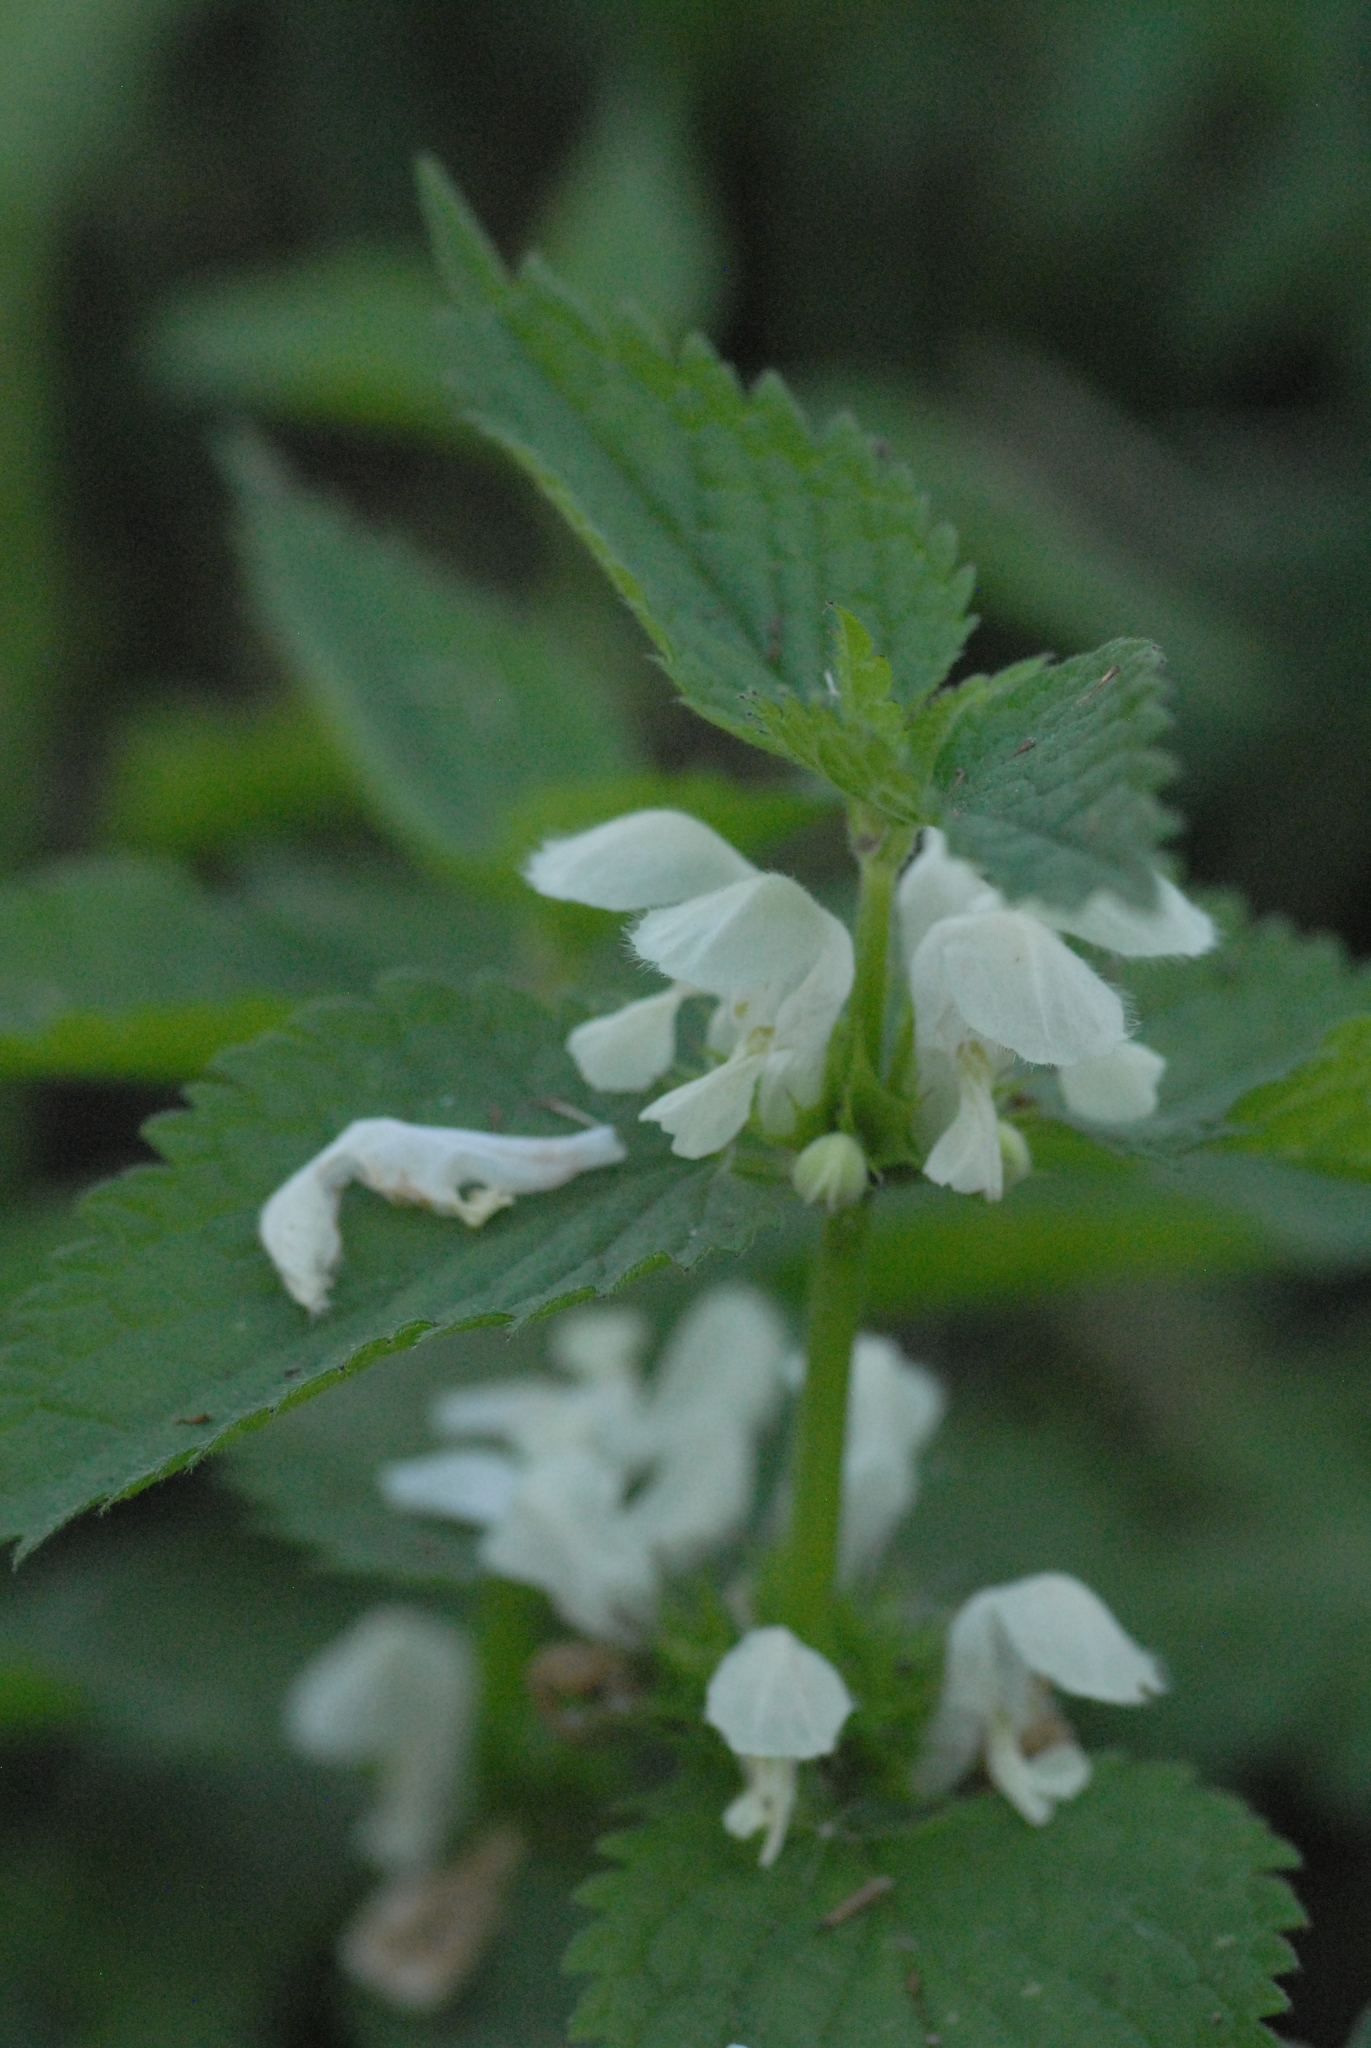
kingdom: Plantae
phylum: Tracheophyta
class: Magnoliopsida
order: Lamiales
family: Lamiaceae
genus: Lamium
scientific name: Lamium album
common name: White dead-nettle
